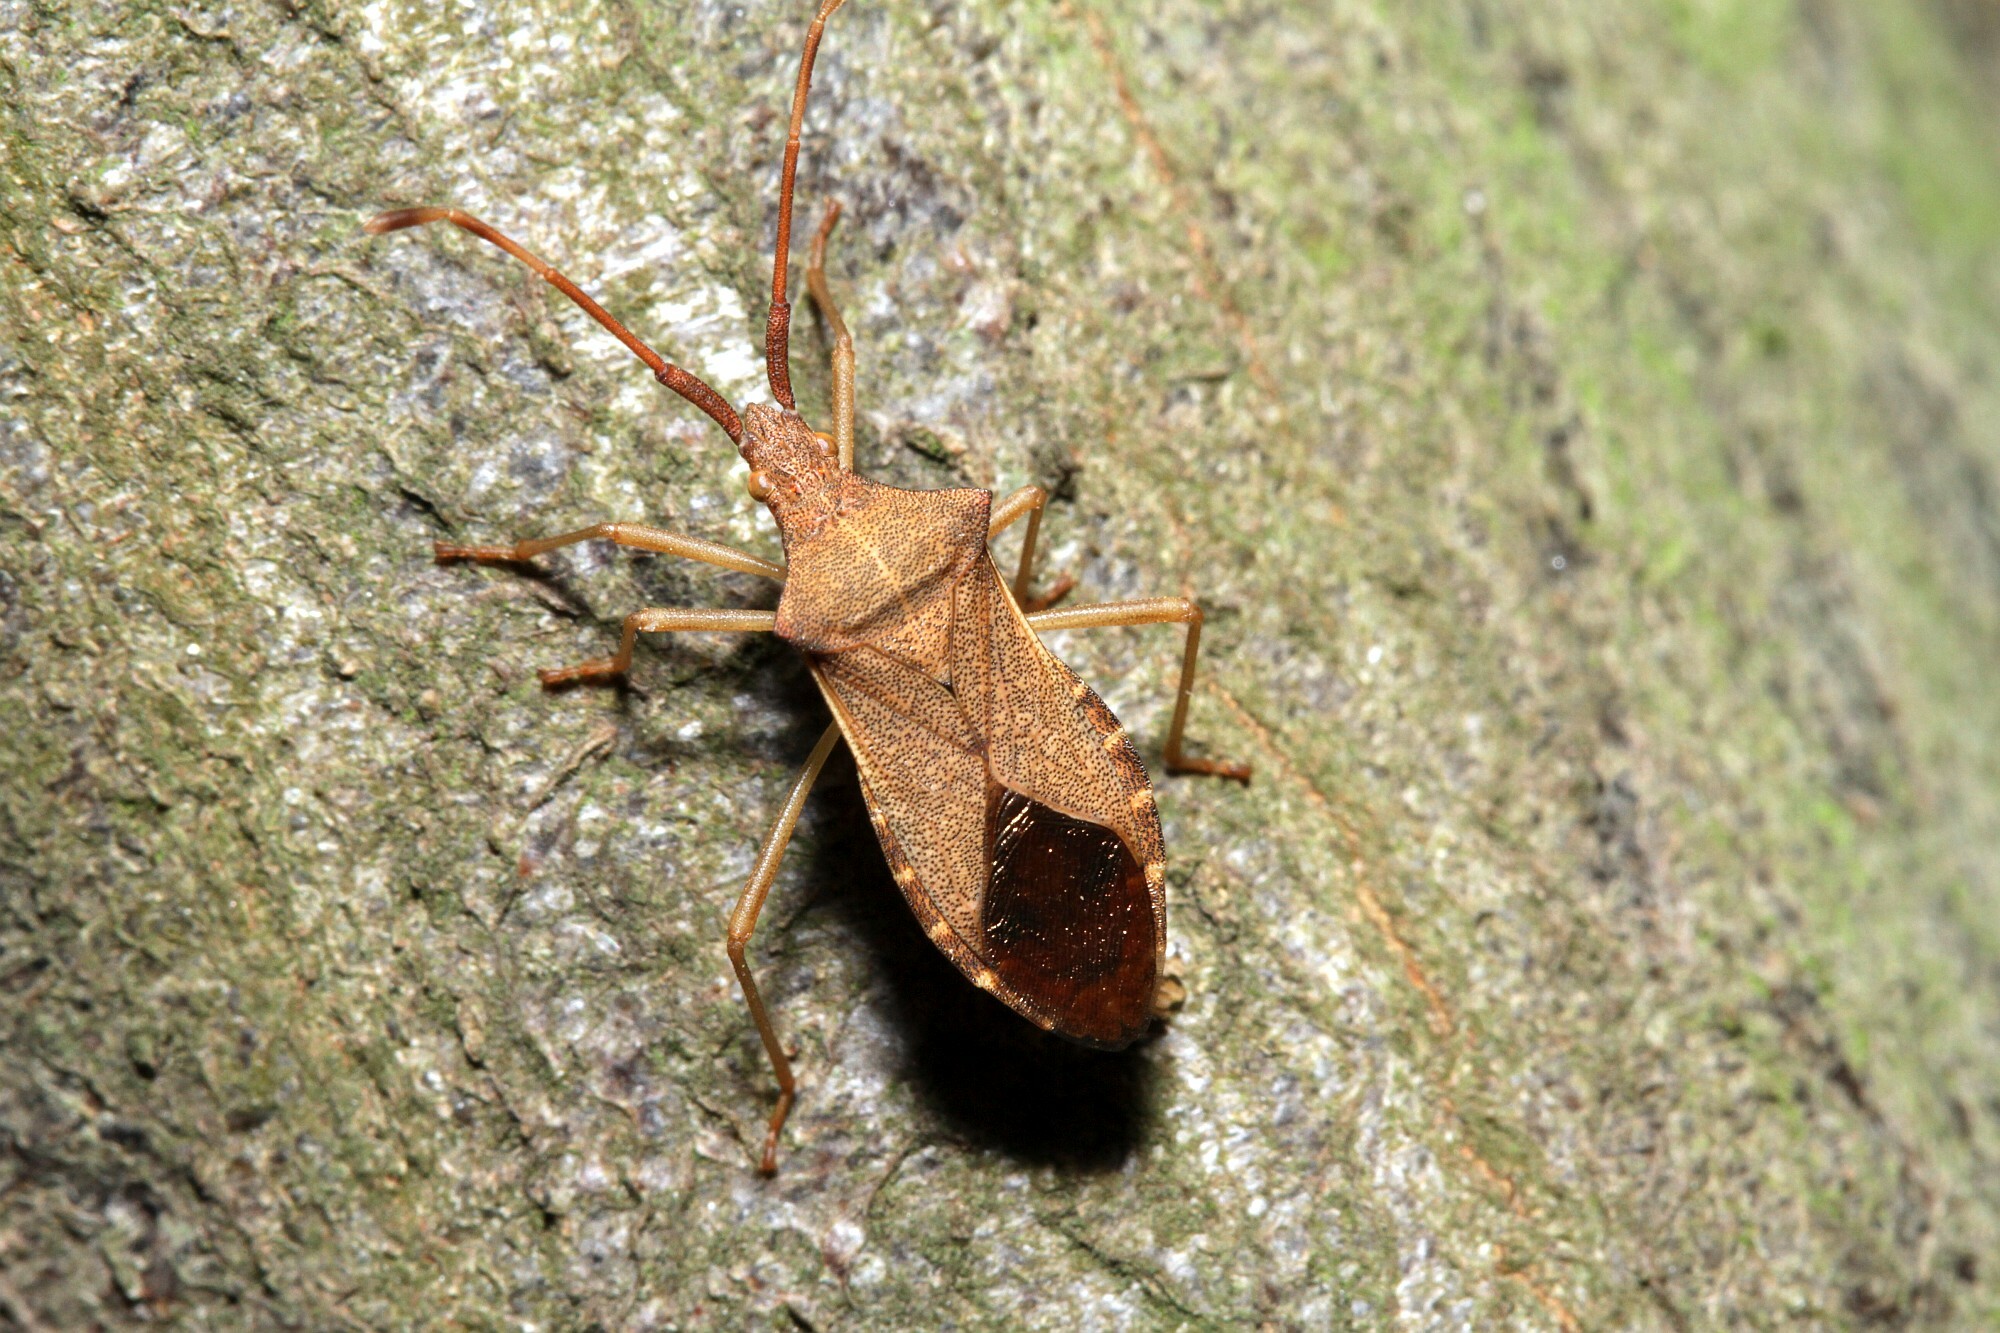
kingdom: Animalia
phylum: Arthropoda
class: Insecta
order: Hemiptera
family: Coreidae
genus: Gonocerus
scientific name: Gonocerus acuteangulatus
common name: Box bug
